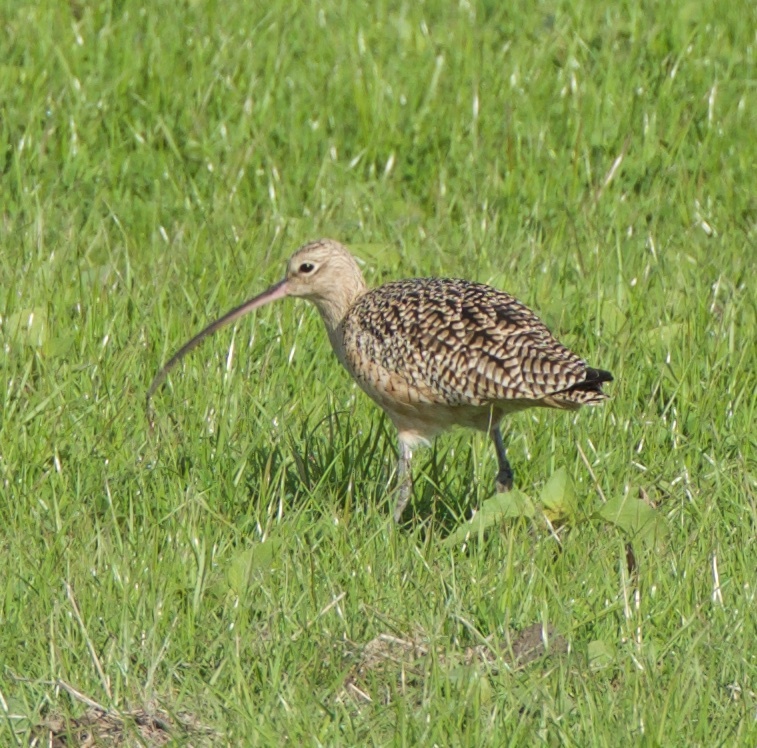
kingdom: Animalia
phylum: Chordata
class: Aves
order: Charadriiformes
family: Scolopacidae
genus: Numenius
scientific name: Numenius americanus
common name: Long-billed curlew
